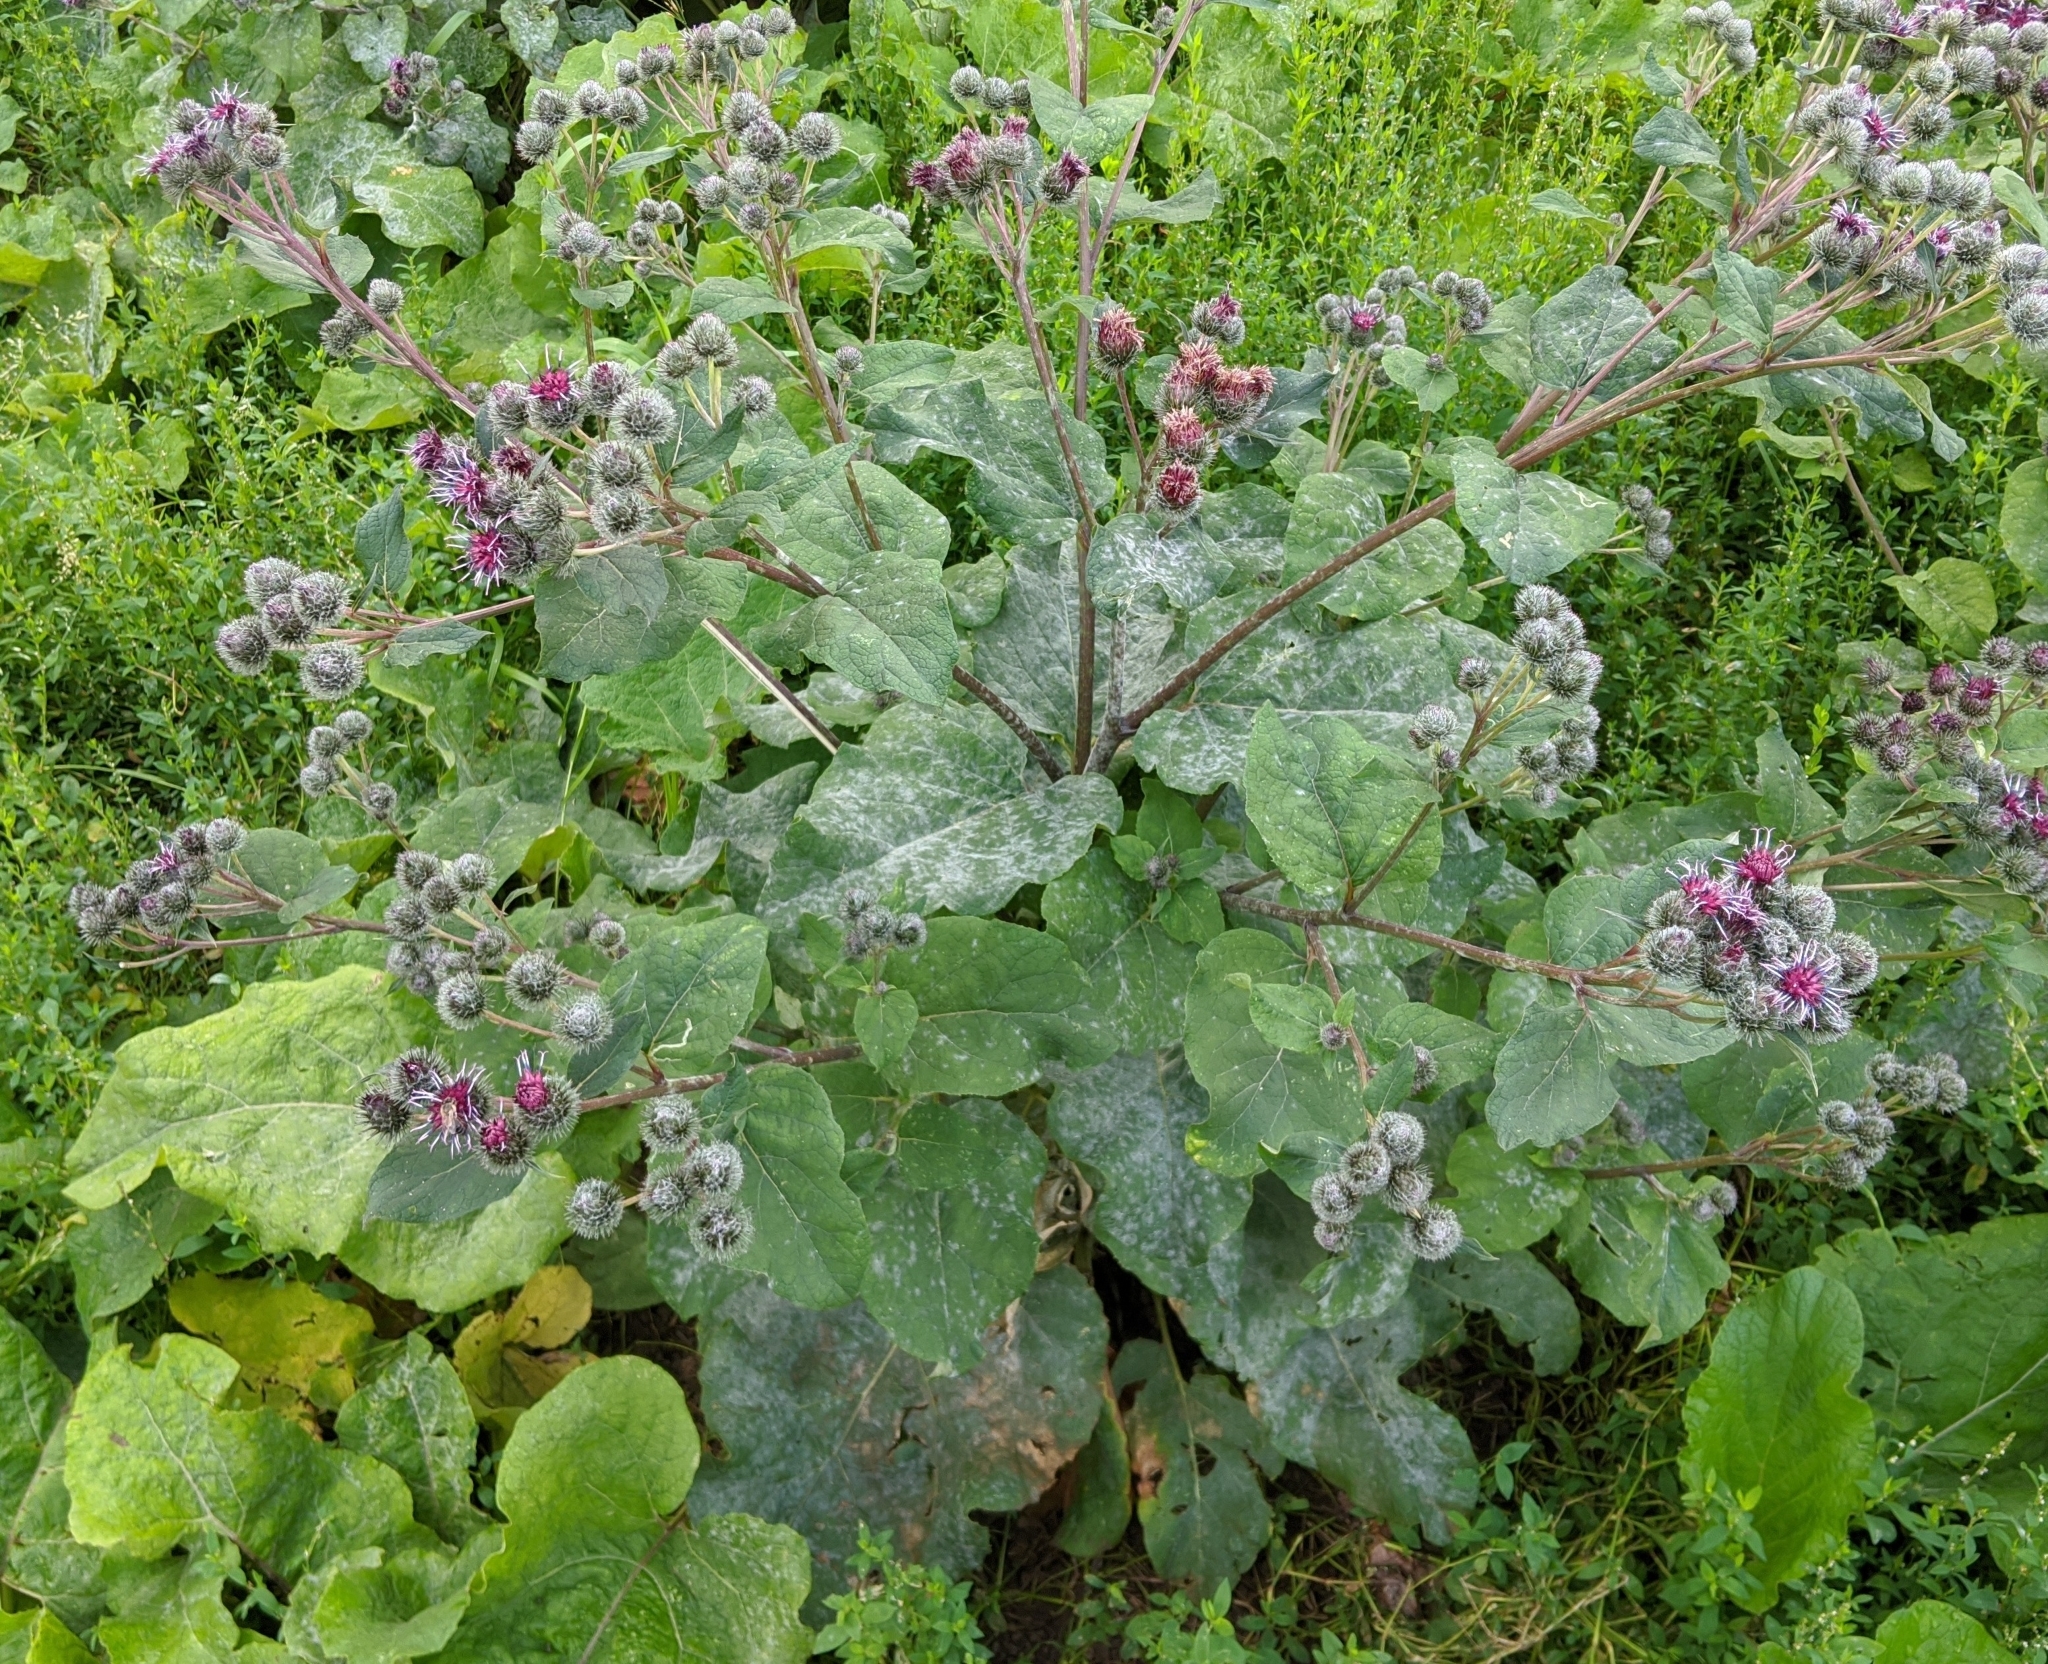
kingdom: Plantae
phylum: Tracheophyta
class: Magnoliopsida
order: Asterales
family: Asteraceae
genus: Arctium
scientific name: Arctium tomentosum
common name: Woolly burdock
